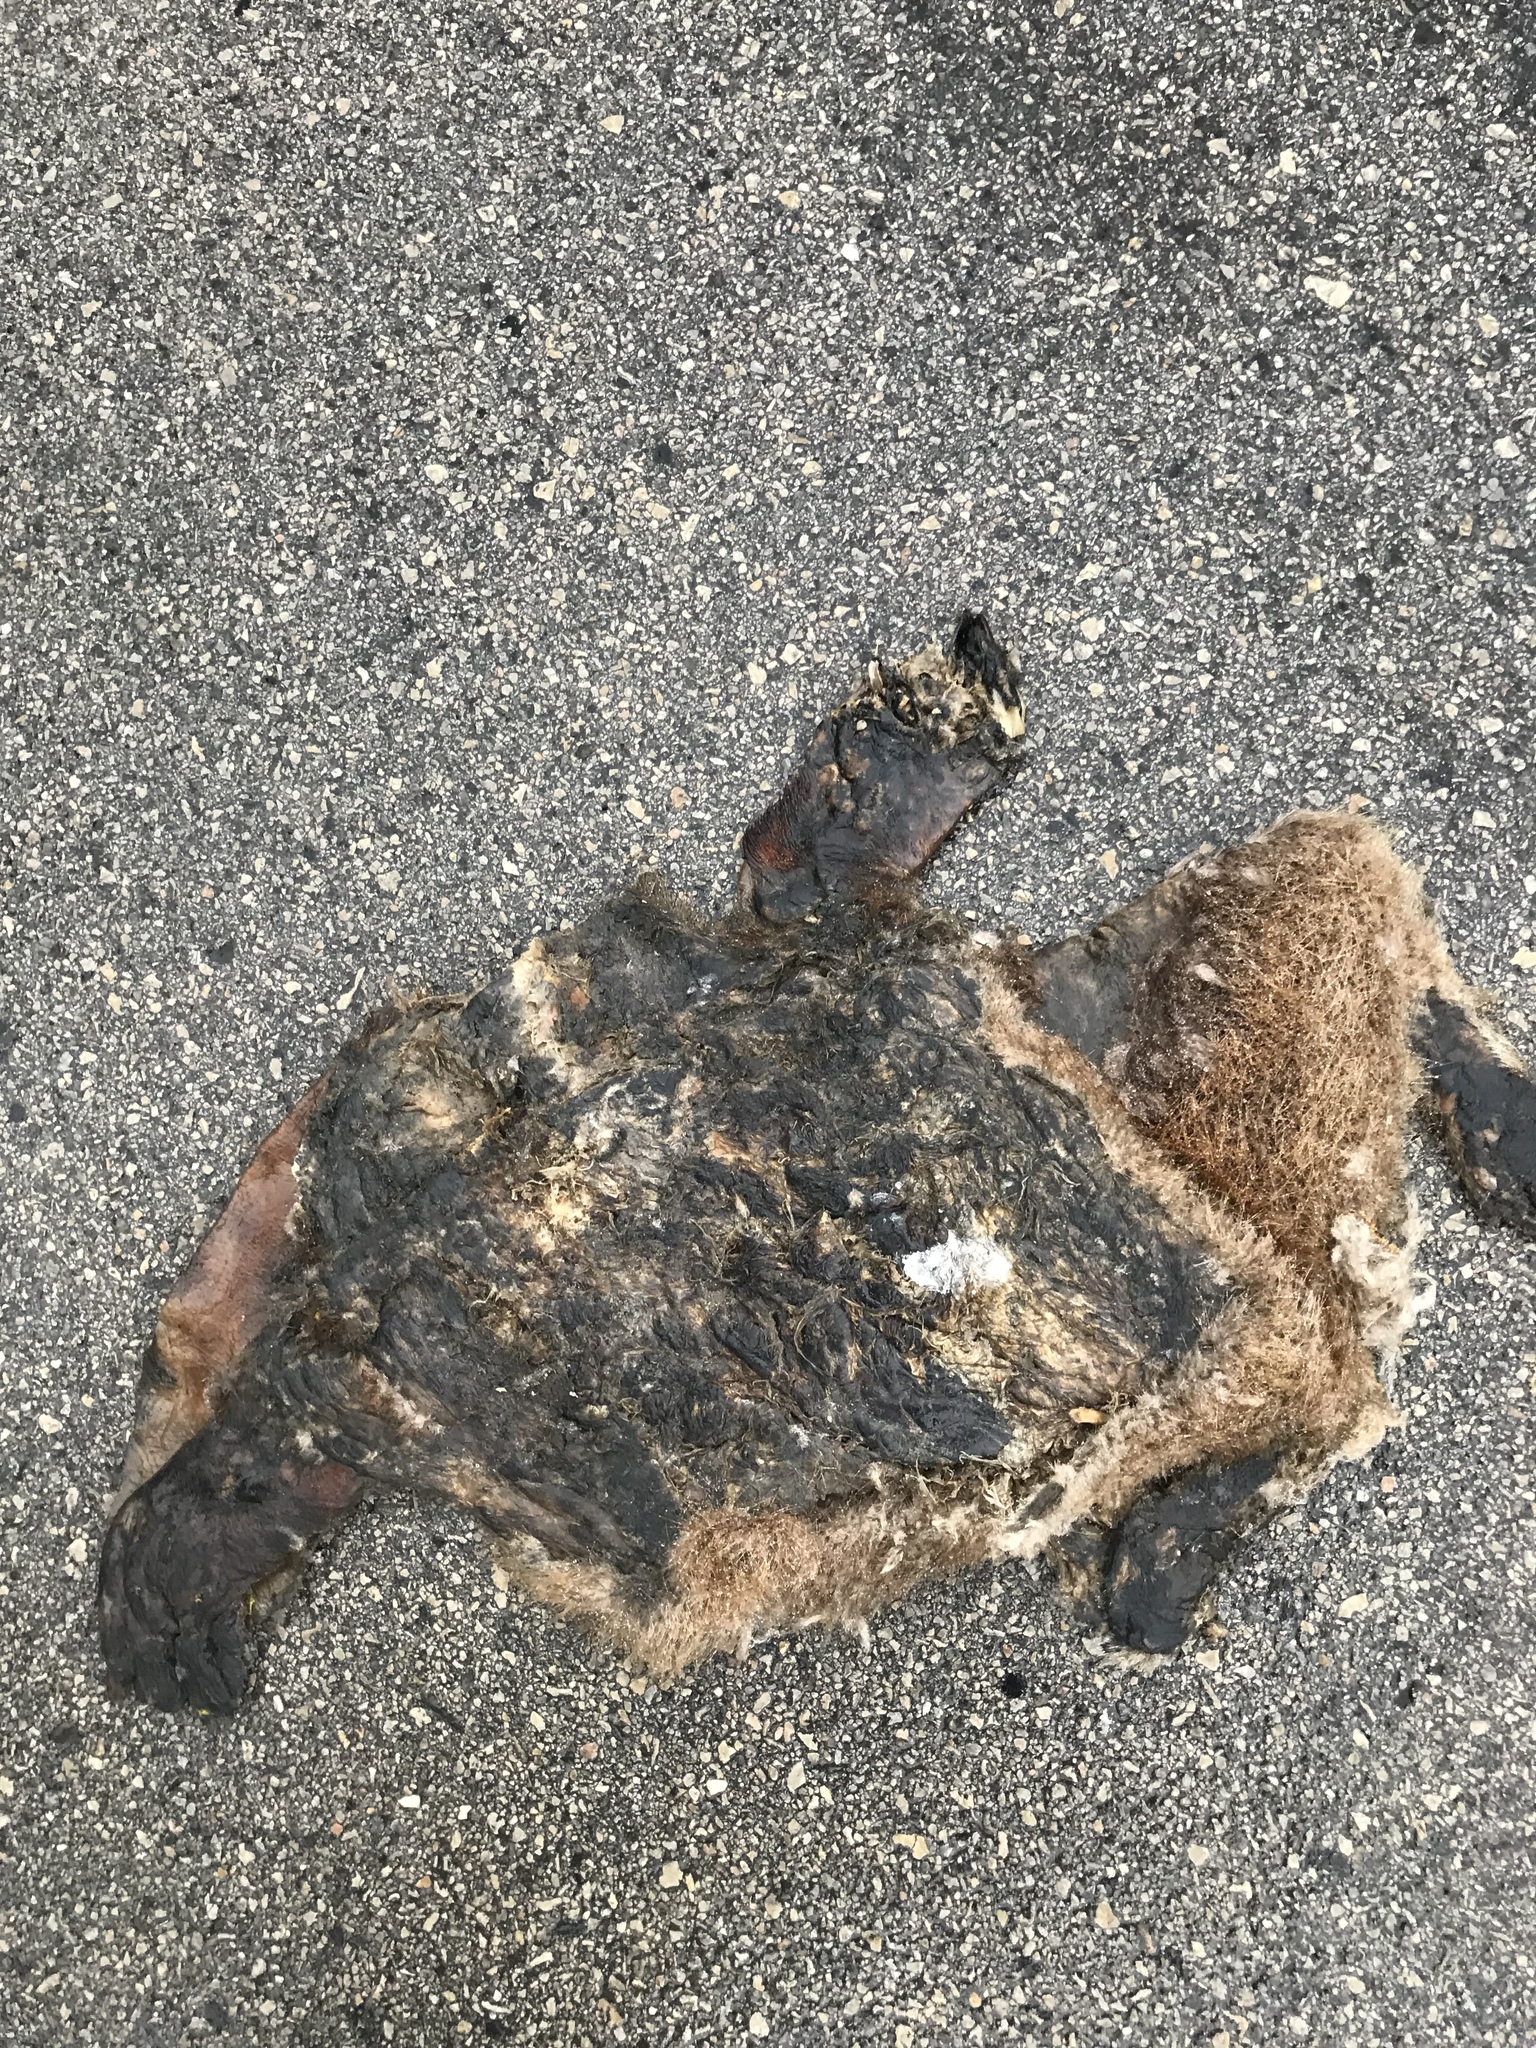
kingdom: Animalia
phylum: Chordata
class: Mammalia
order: Rodentia
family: Castoridae
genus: Castor
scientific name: Castor canadensis
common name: American beaver
